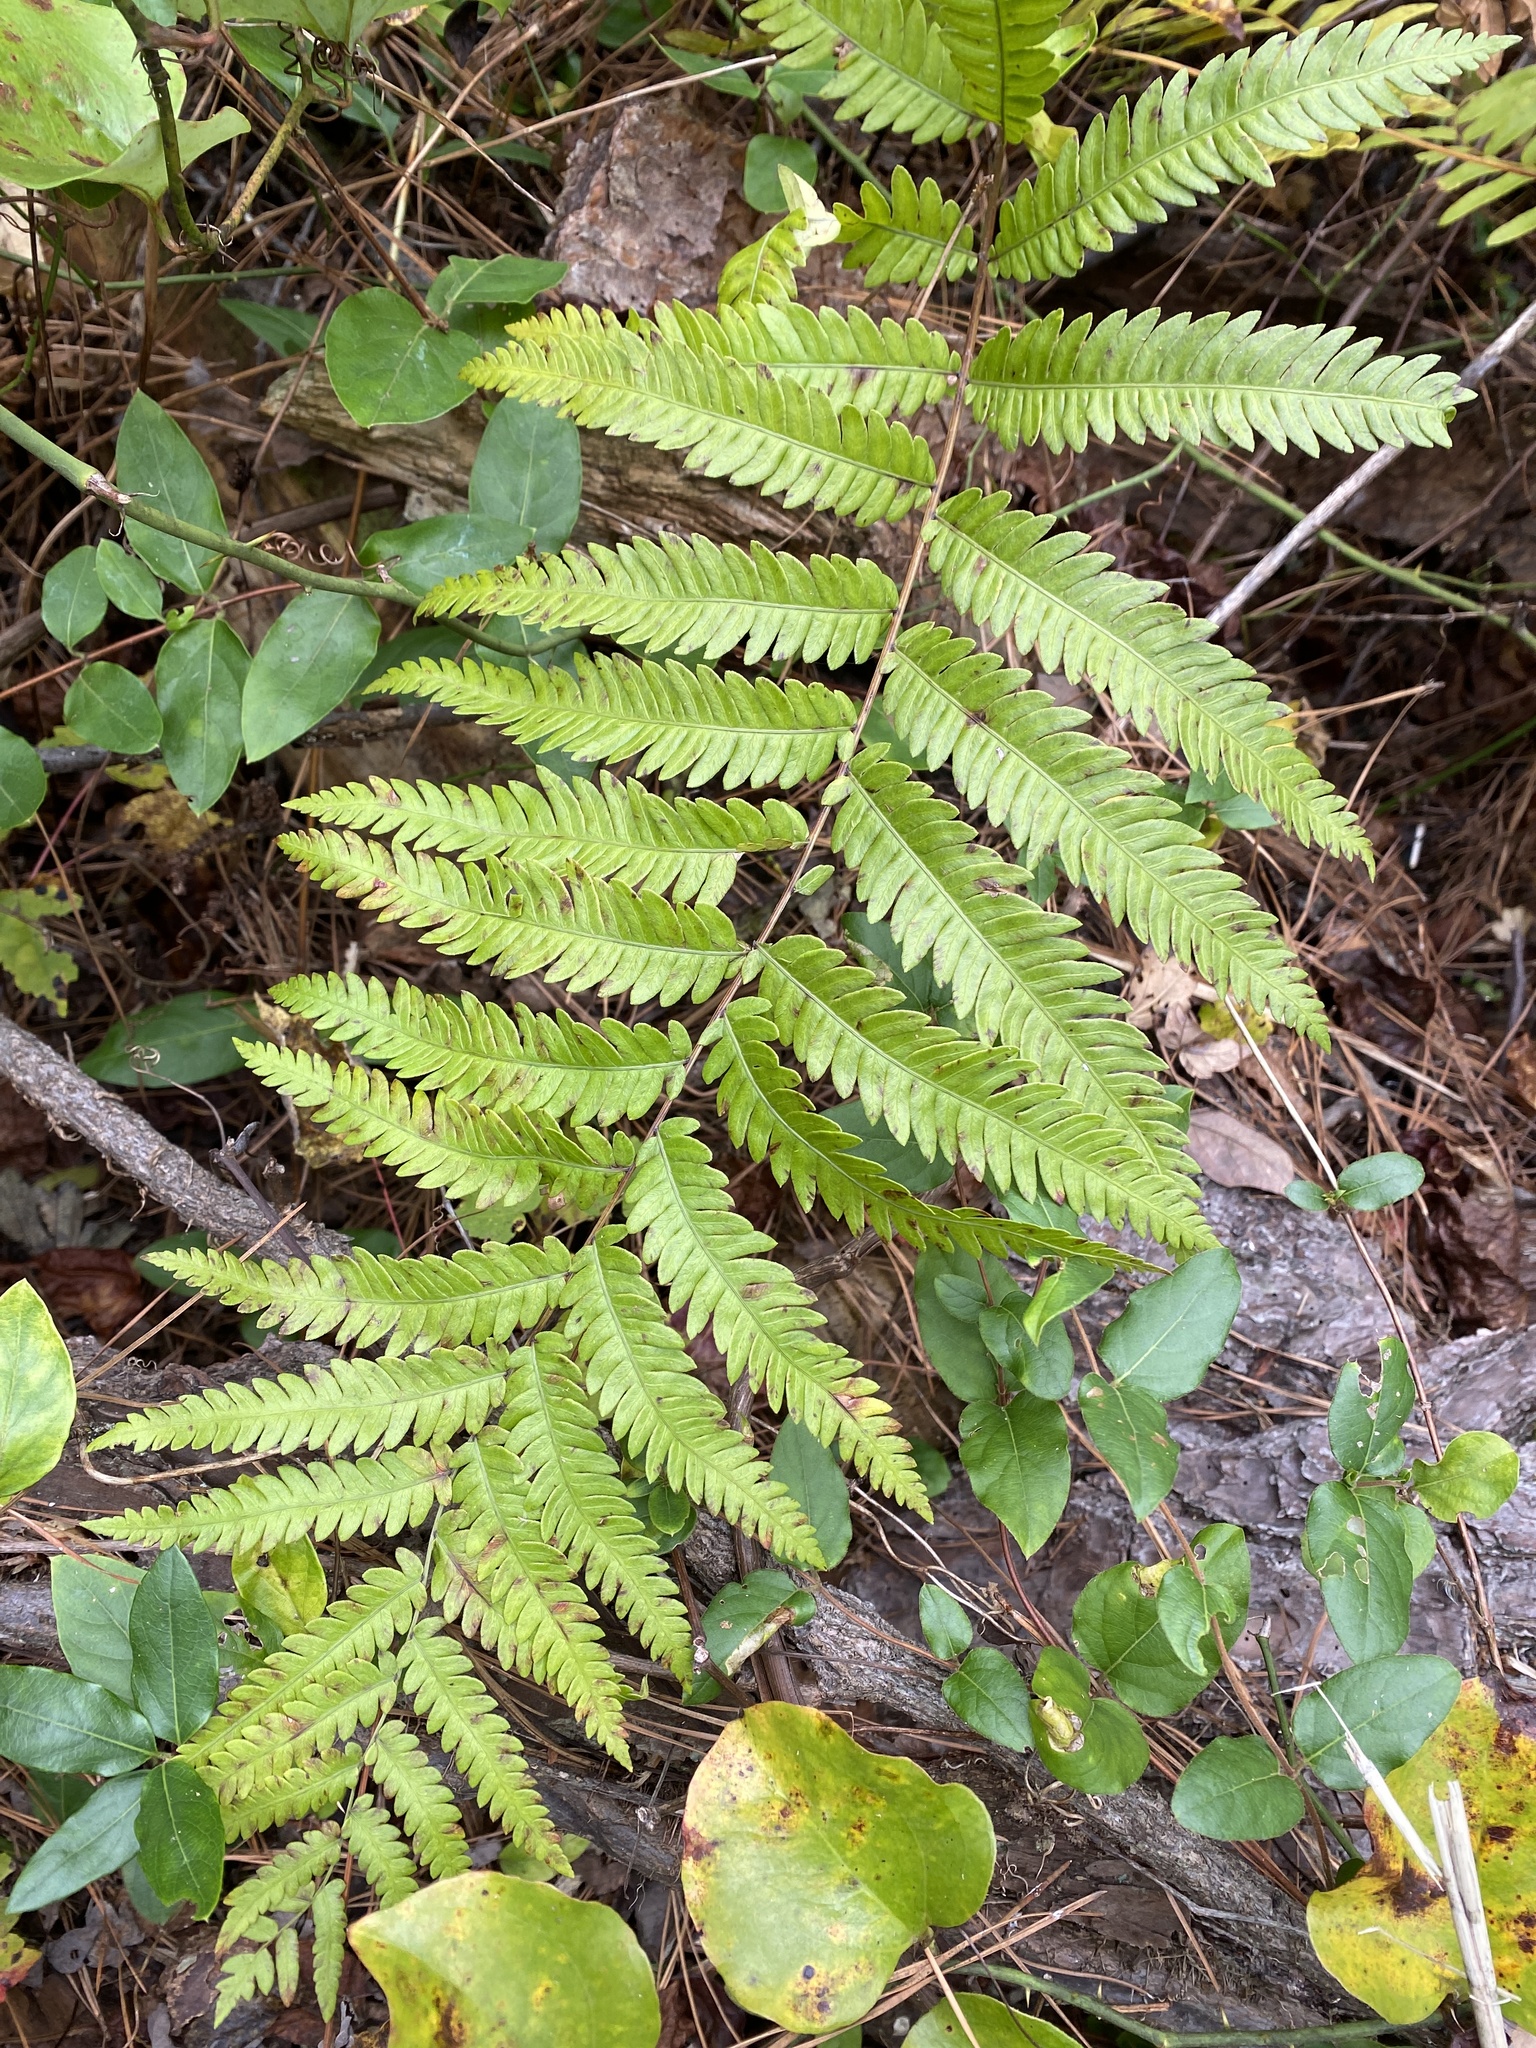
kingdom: Plantae
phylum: Tracheophyta
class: Polypodiopsida
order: Polypodiales
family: Blechnaceae
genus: Anchistea
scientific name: Anchistea virginica
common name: Virginia chain fern
